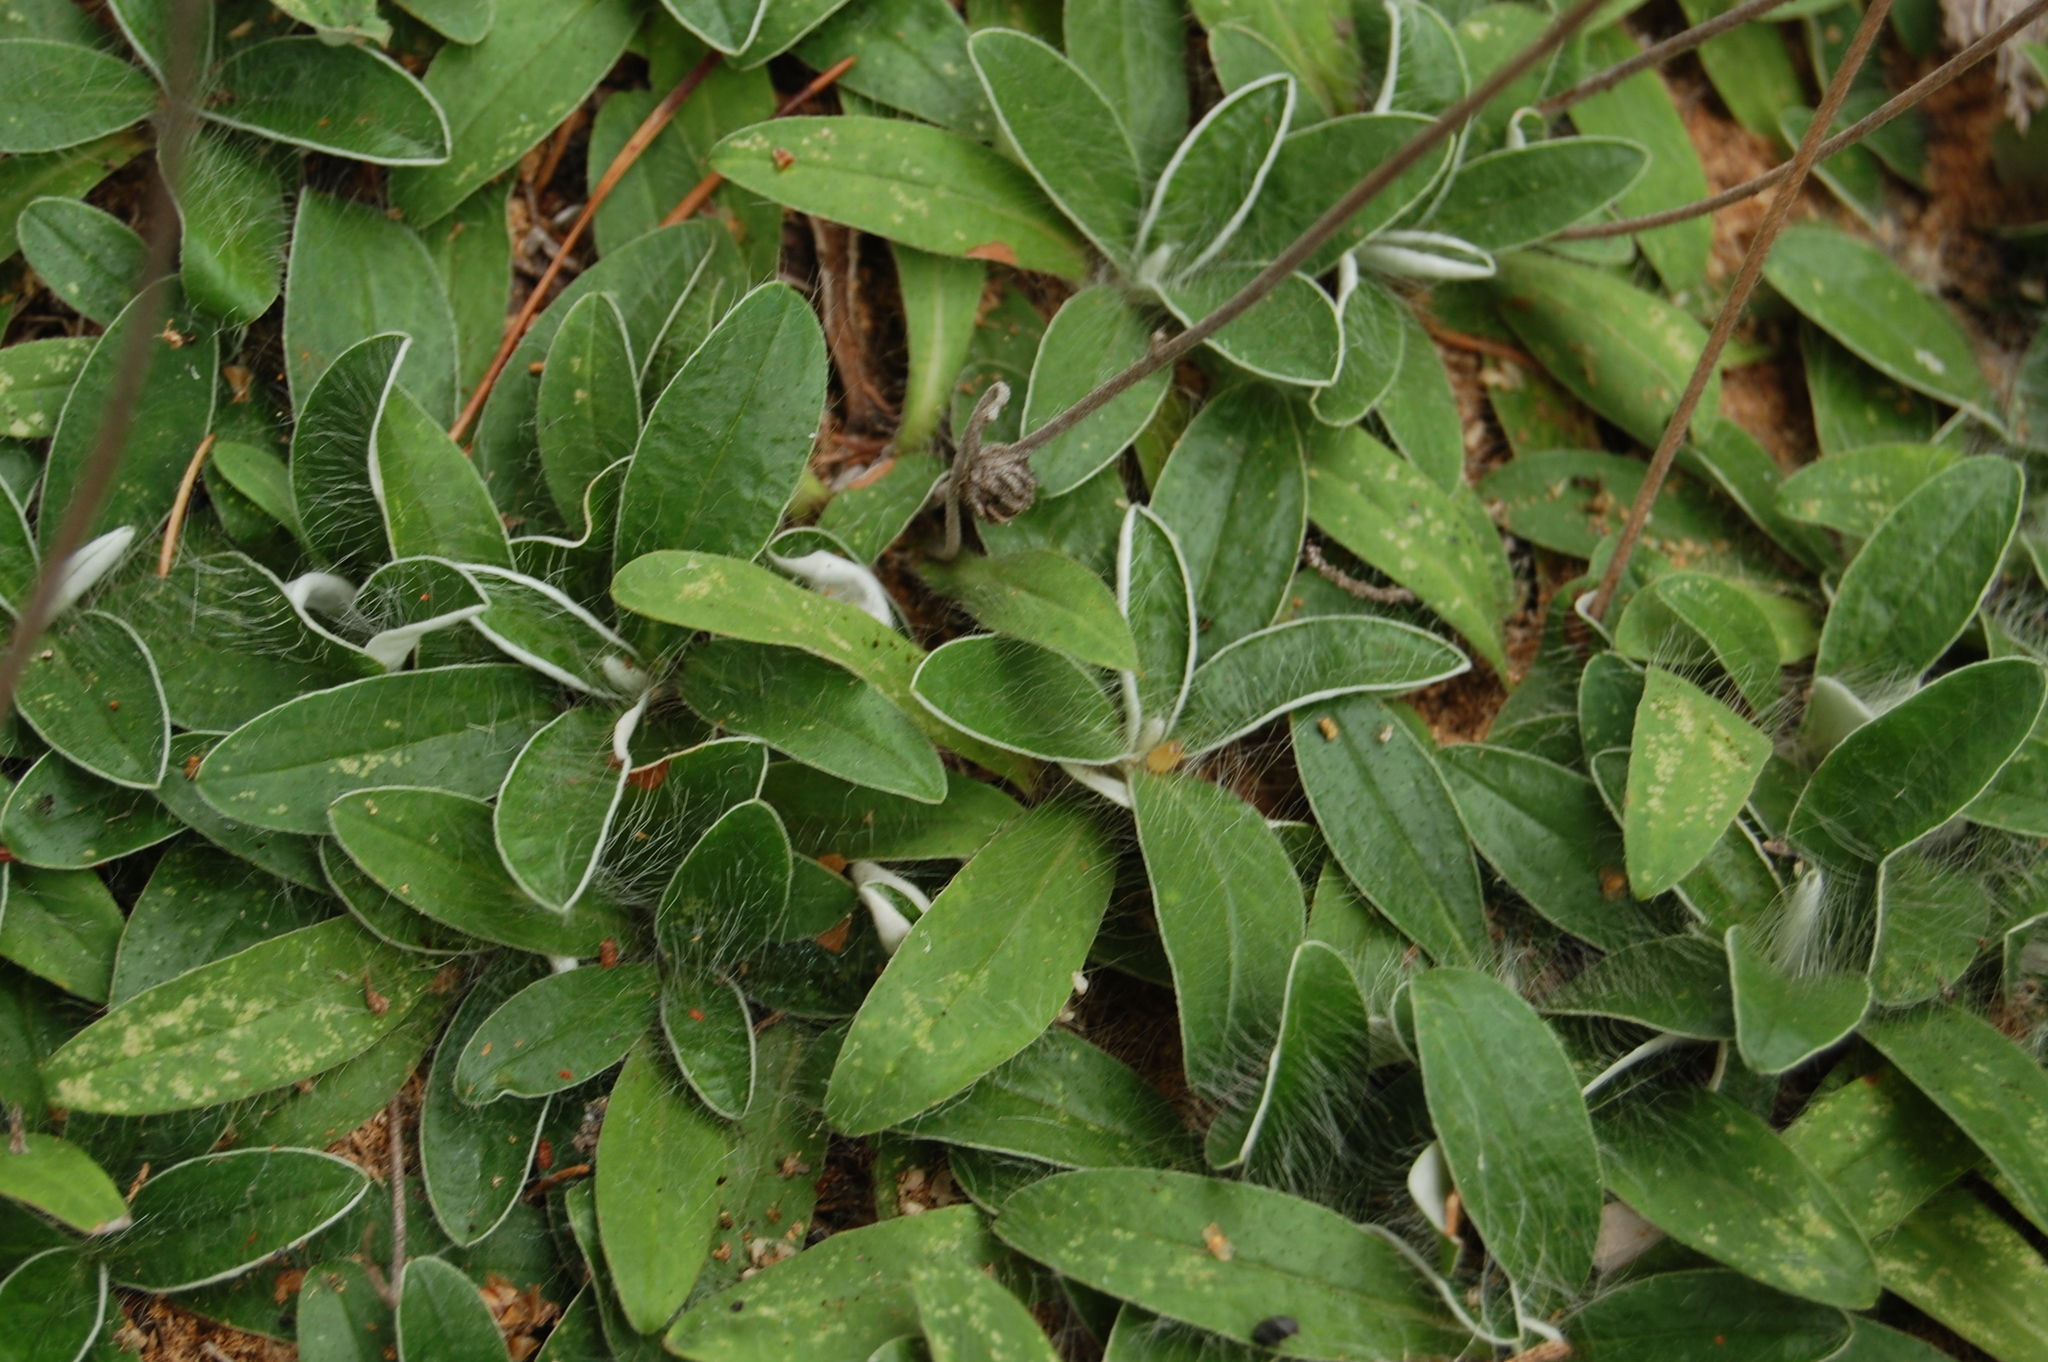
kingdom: Plantae
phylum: Tracheophyta
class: Magnoliopsida
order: Asterales
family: Asteraceae
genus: Pilosella
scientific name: Pilosella officinarum
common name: Mouse-ear hawkweed
